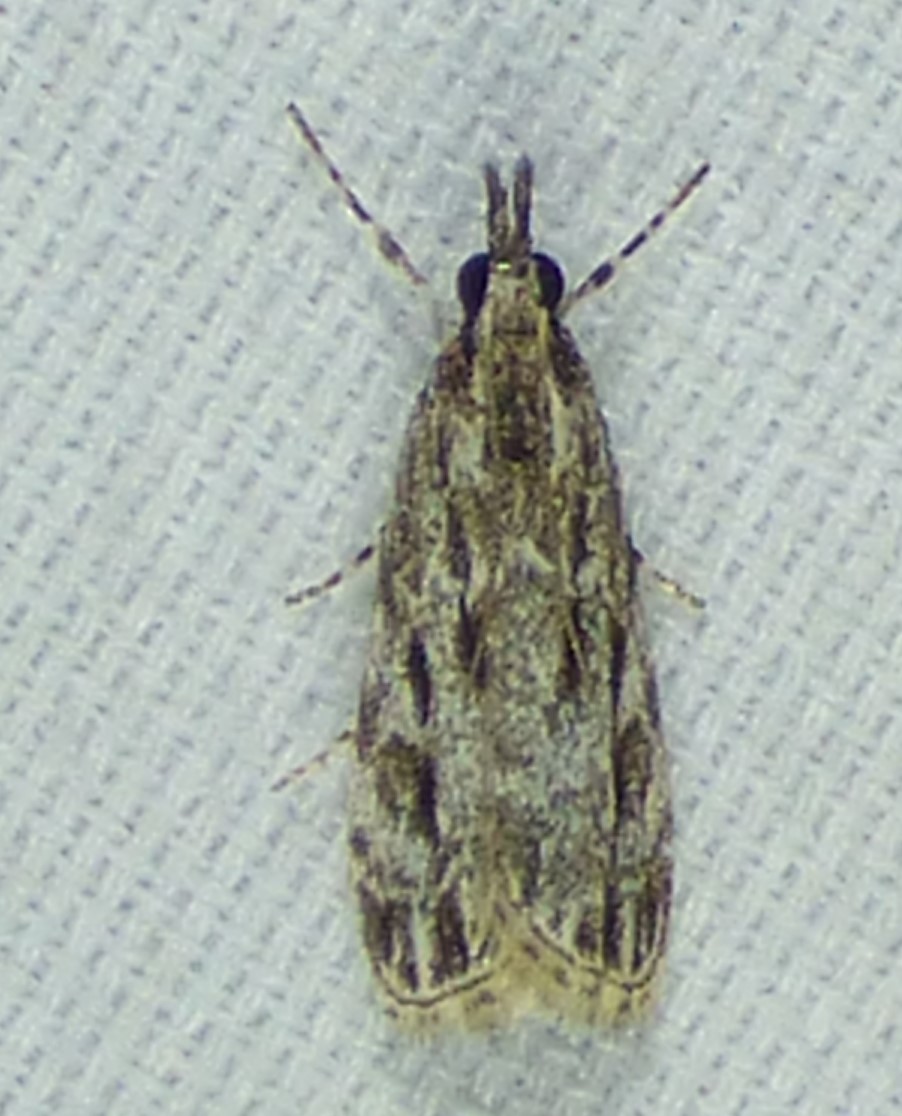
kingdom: Animalia
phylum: Arthropoda
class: Insecta
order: Lepidoptera
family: Crambidae
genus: Eudonia
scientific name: Eudonia strigalis
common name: Striped eudonia moth
